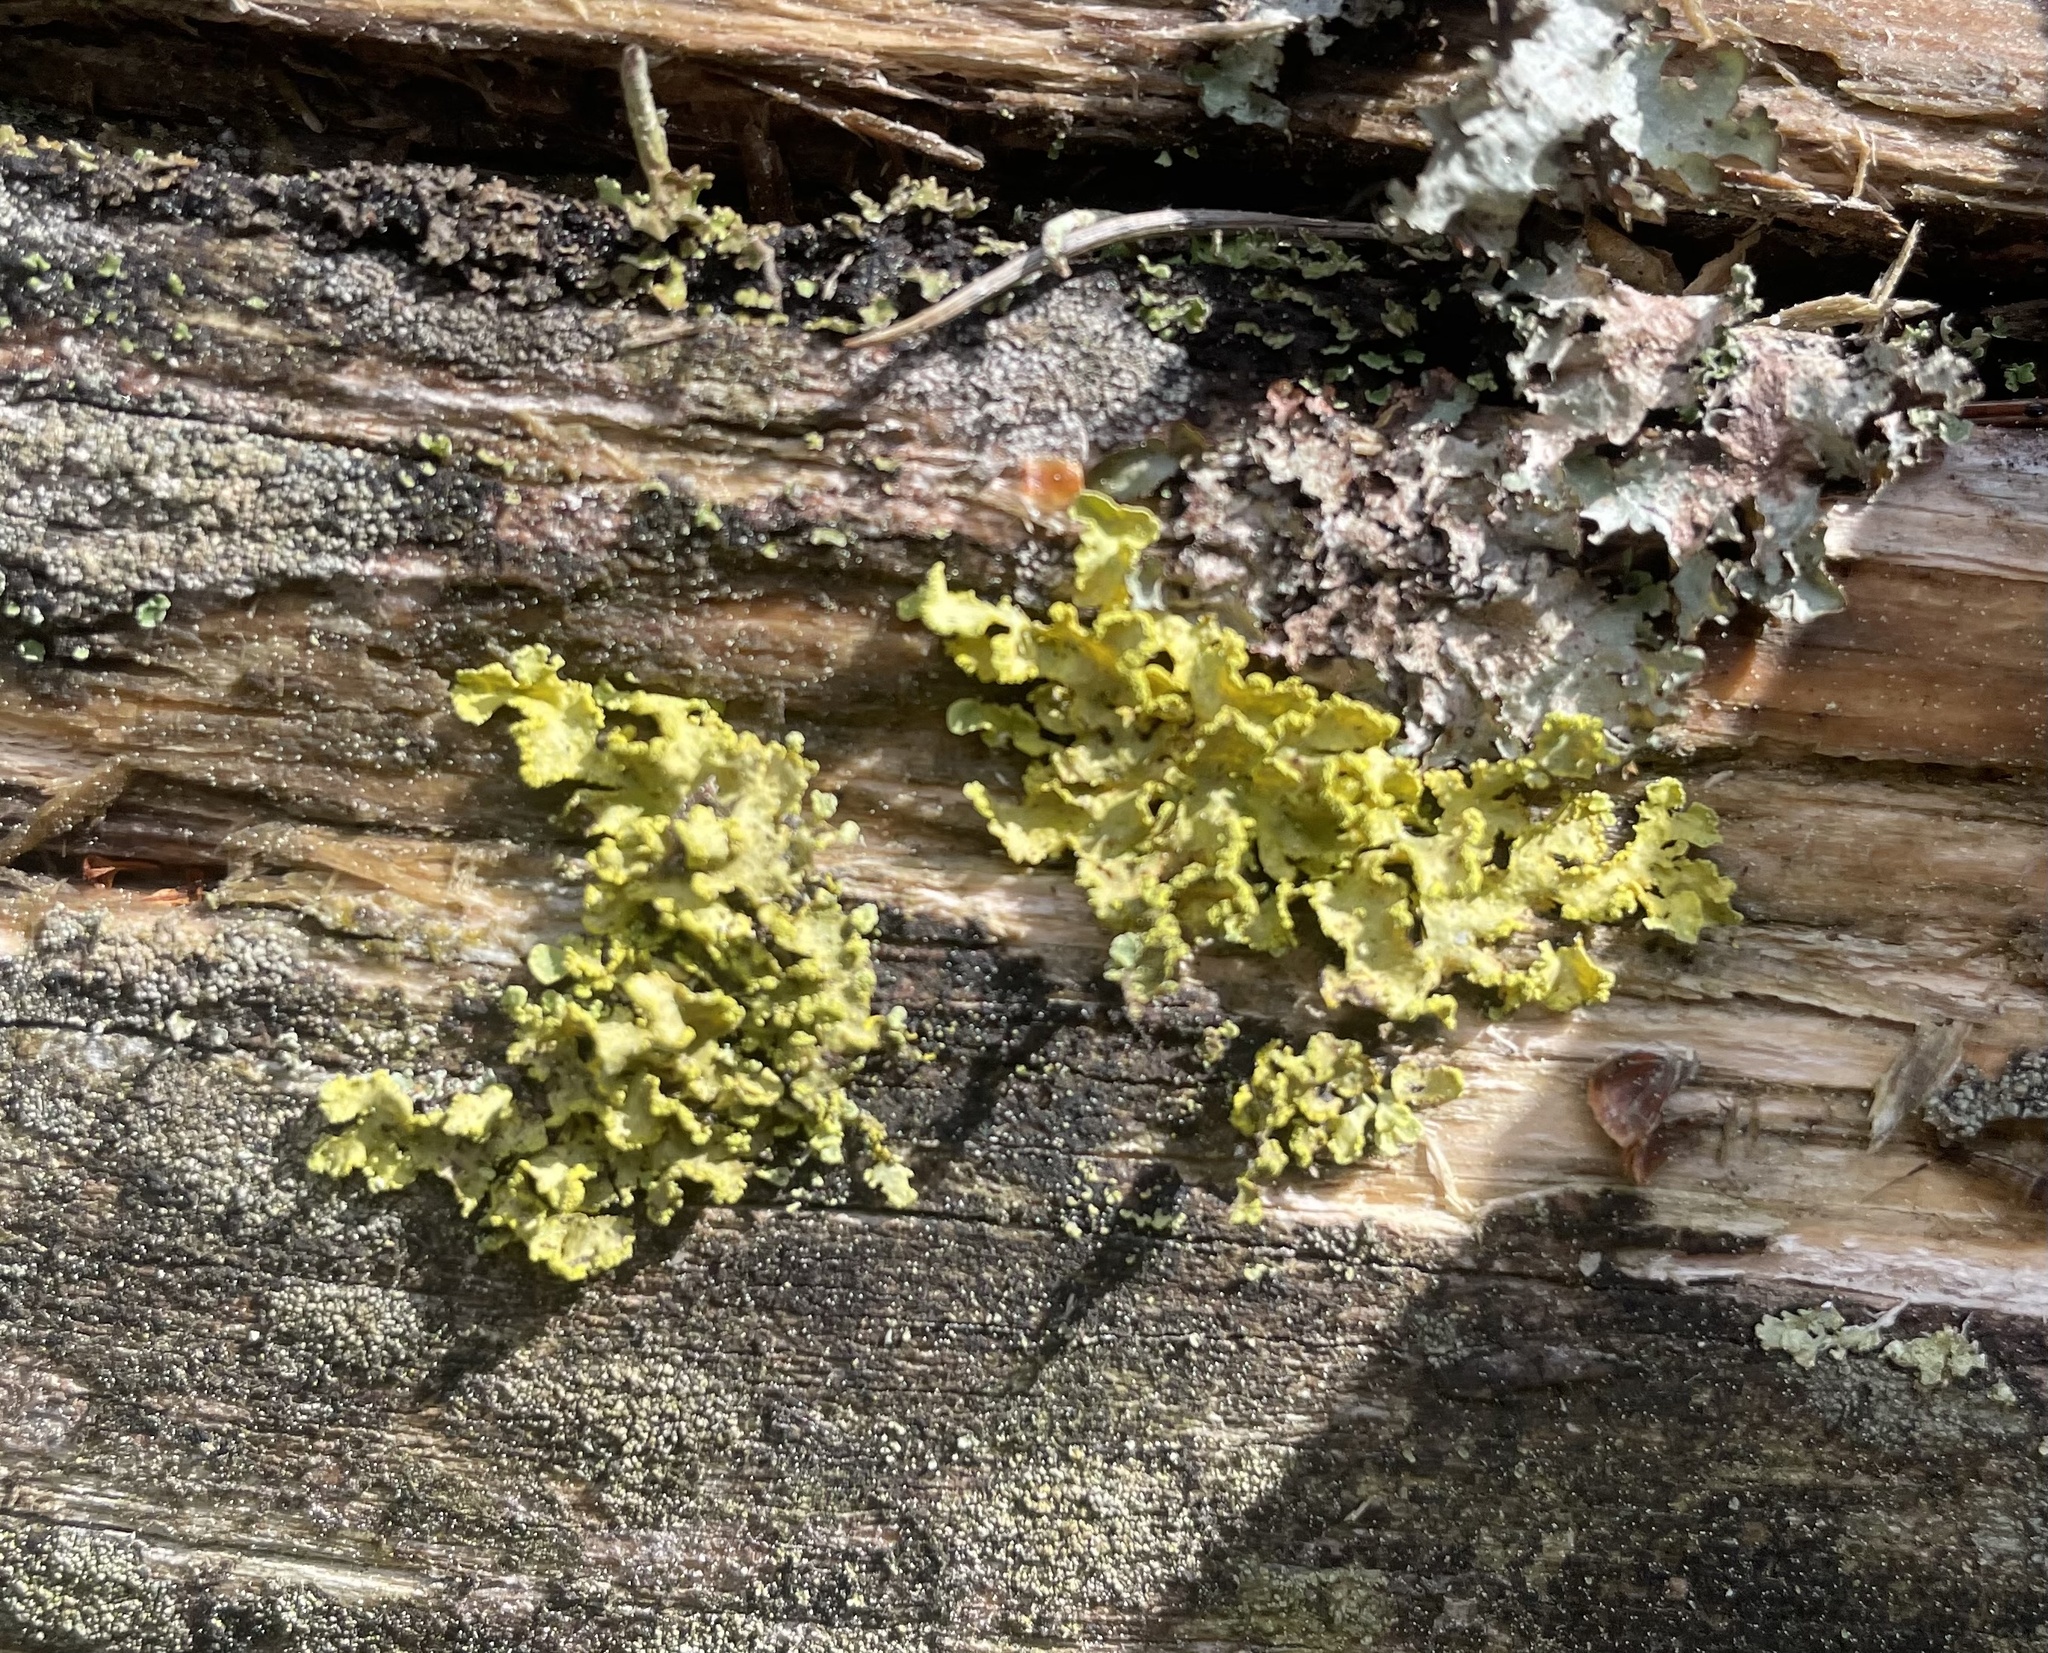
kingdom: Fungi
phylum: Ascomycota
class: Lecanoromycetes
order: Lecanorales
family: Parmeliaceae
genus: Vulpicida
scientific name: Vulpicida pinastri
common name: Powdered sunshine lichen
